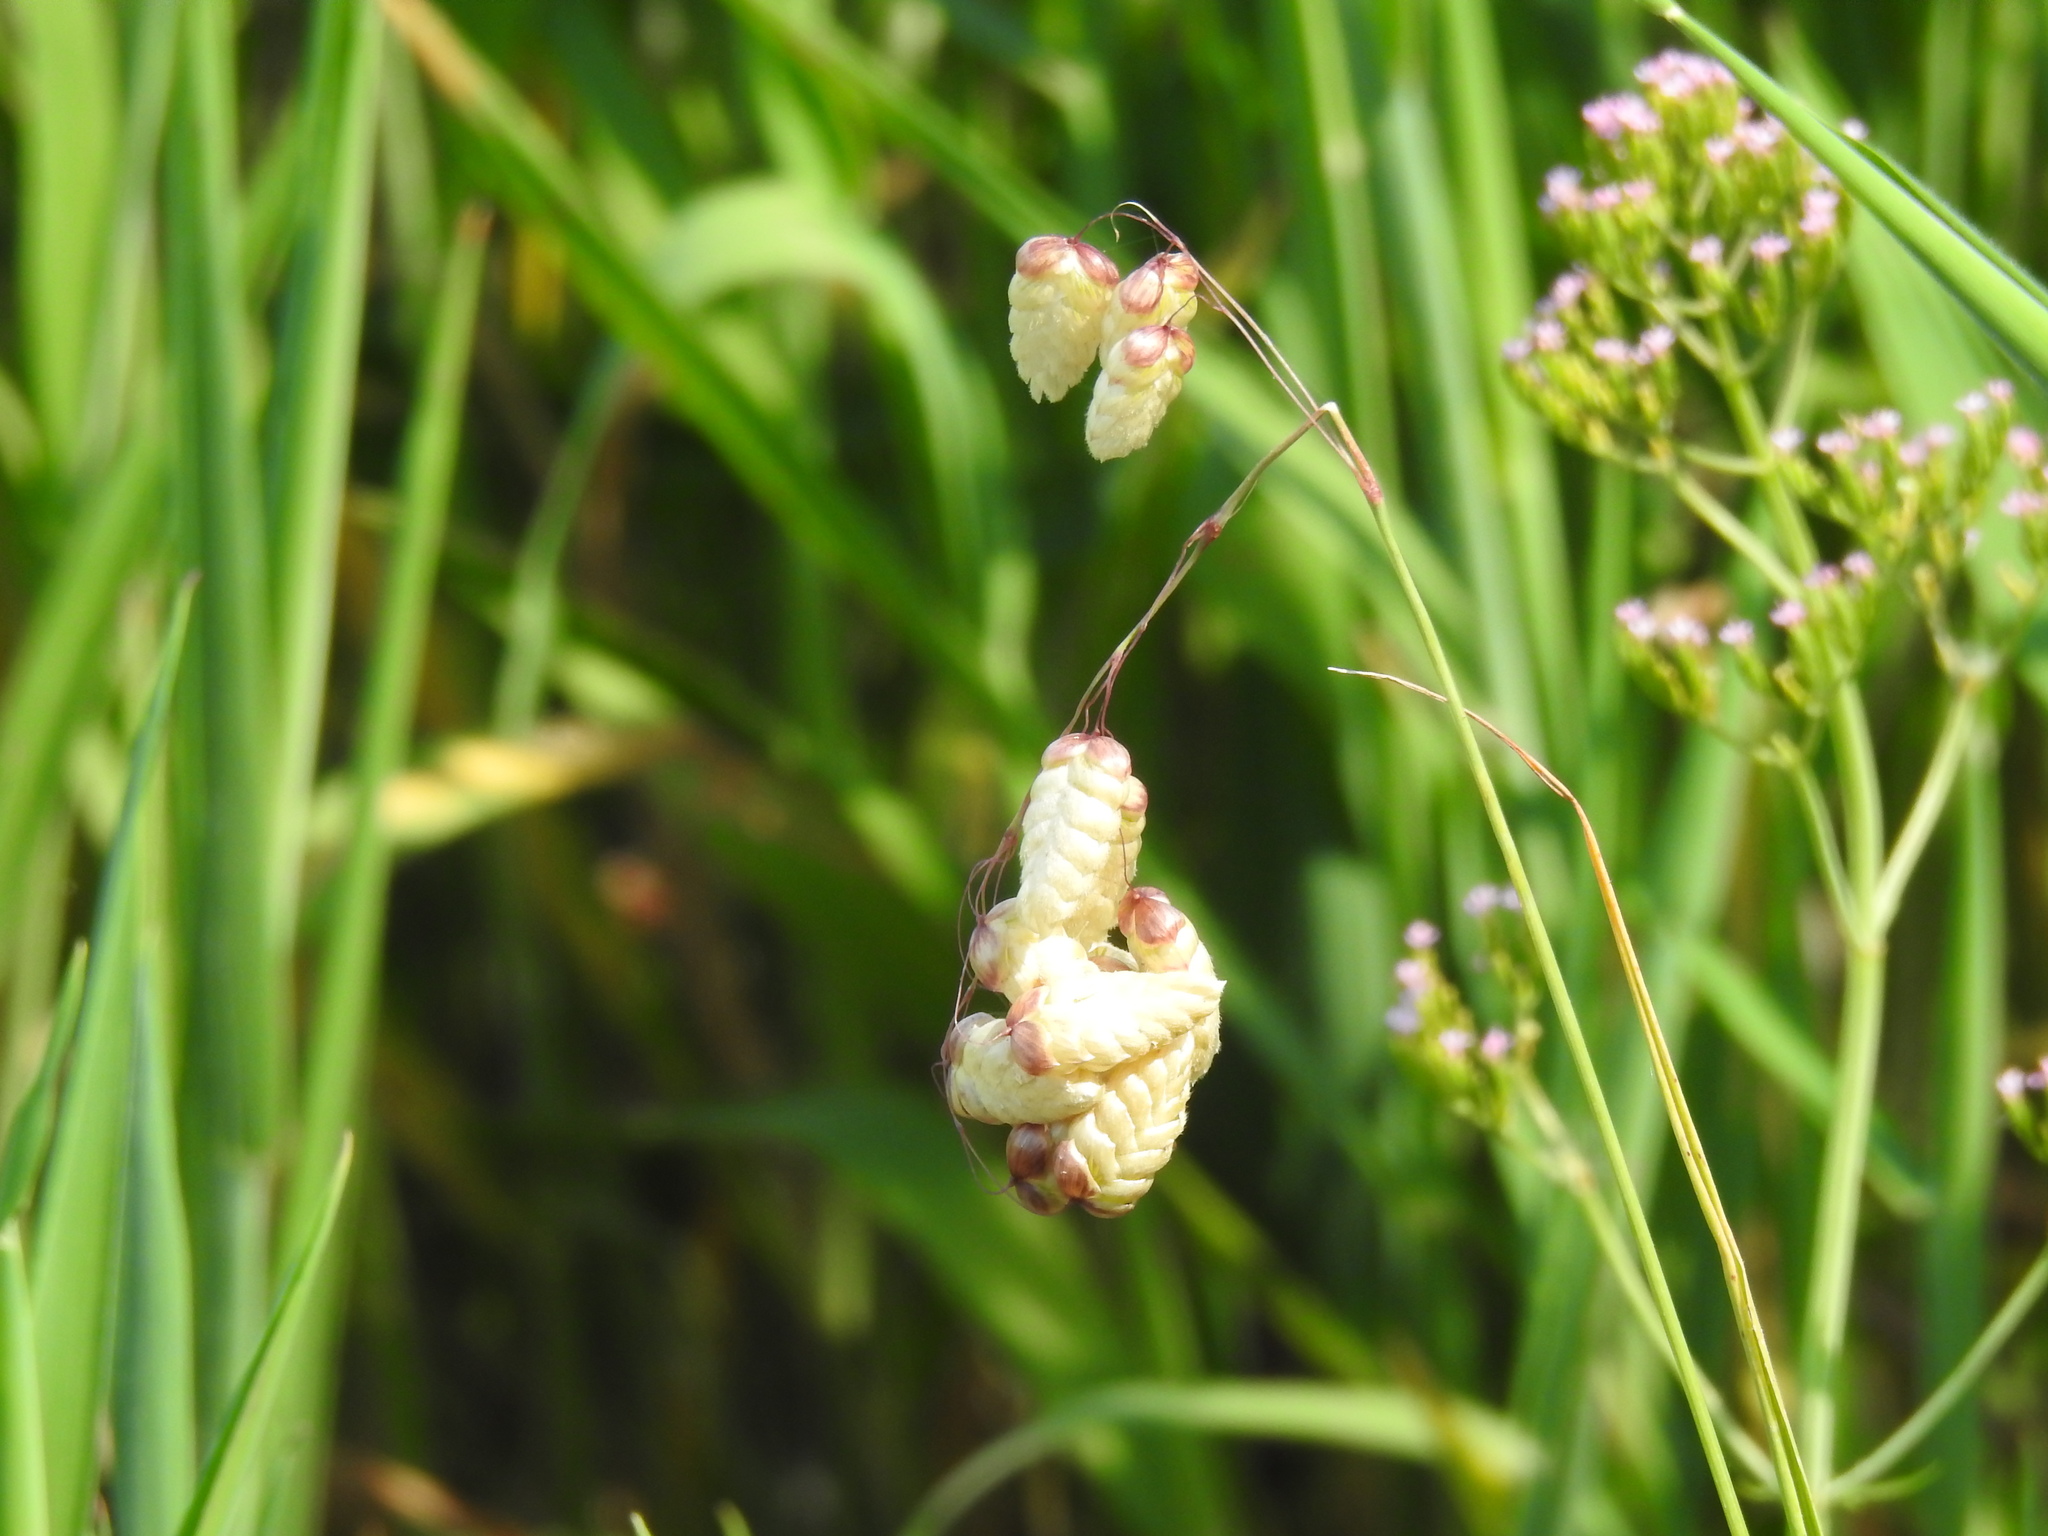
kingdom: Plantae
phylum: Tracheophyta
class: Liliopsida
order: Poales
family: Poaceae
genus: Briza
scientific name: Briza maxima
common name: Big quakinggrass
